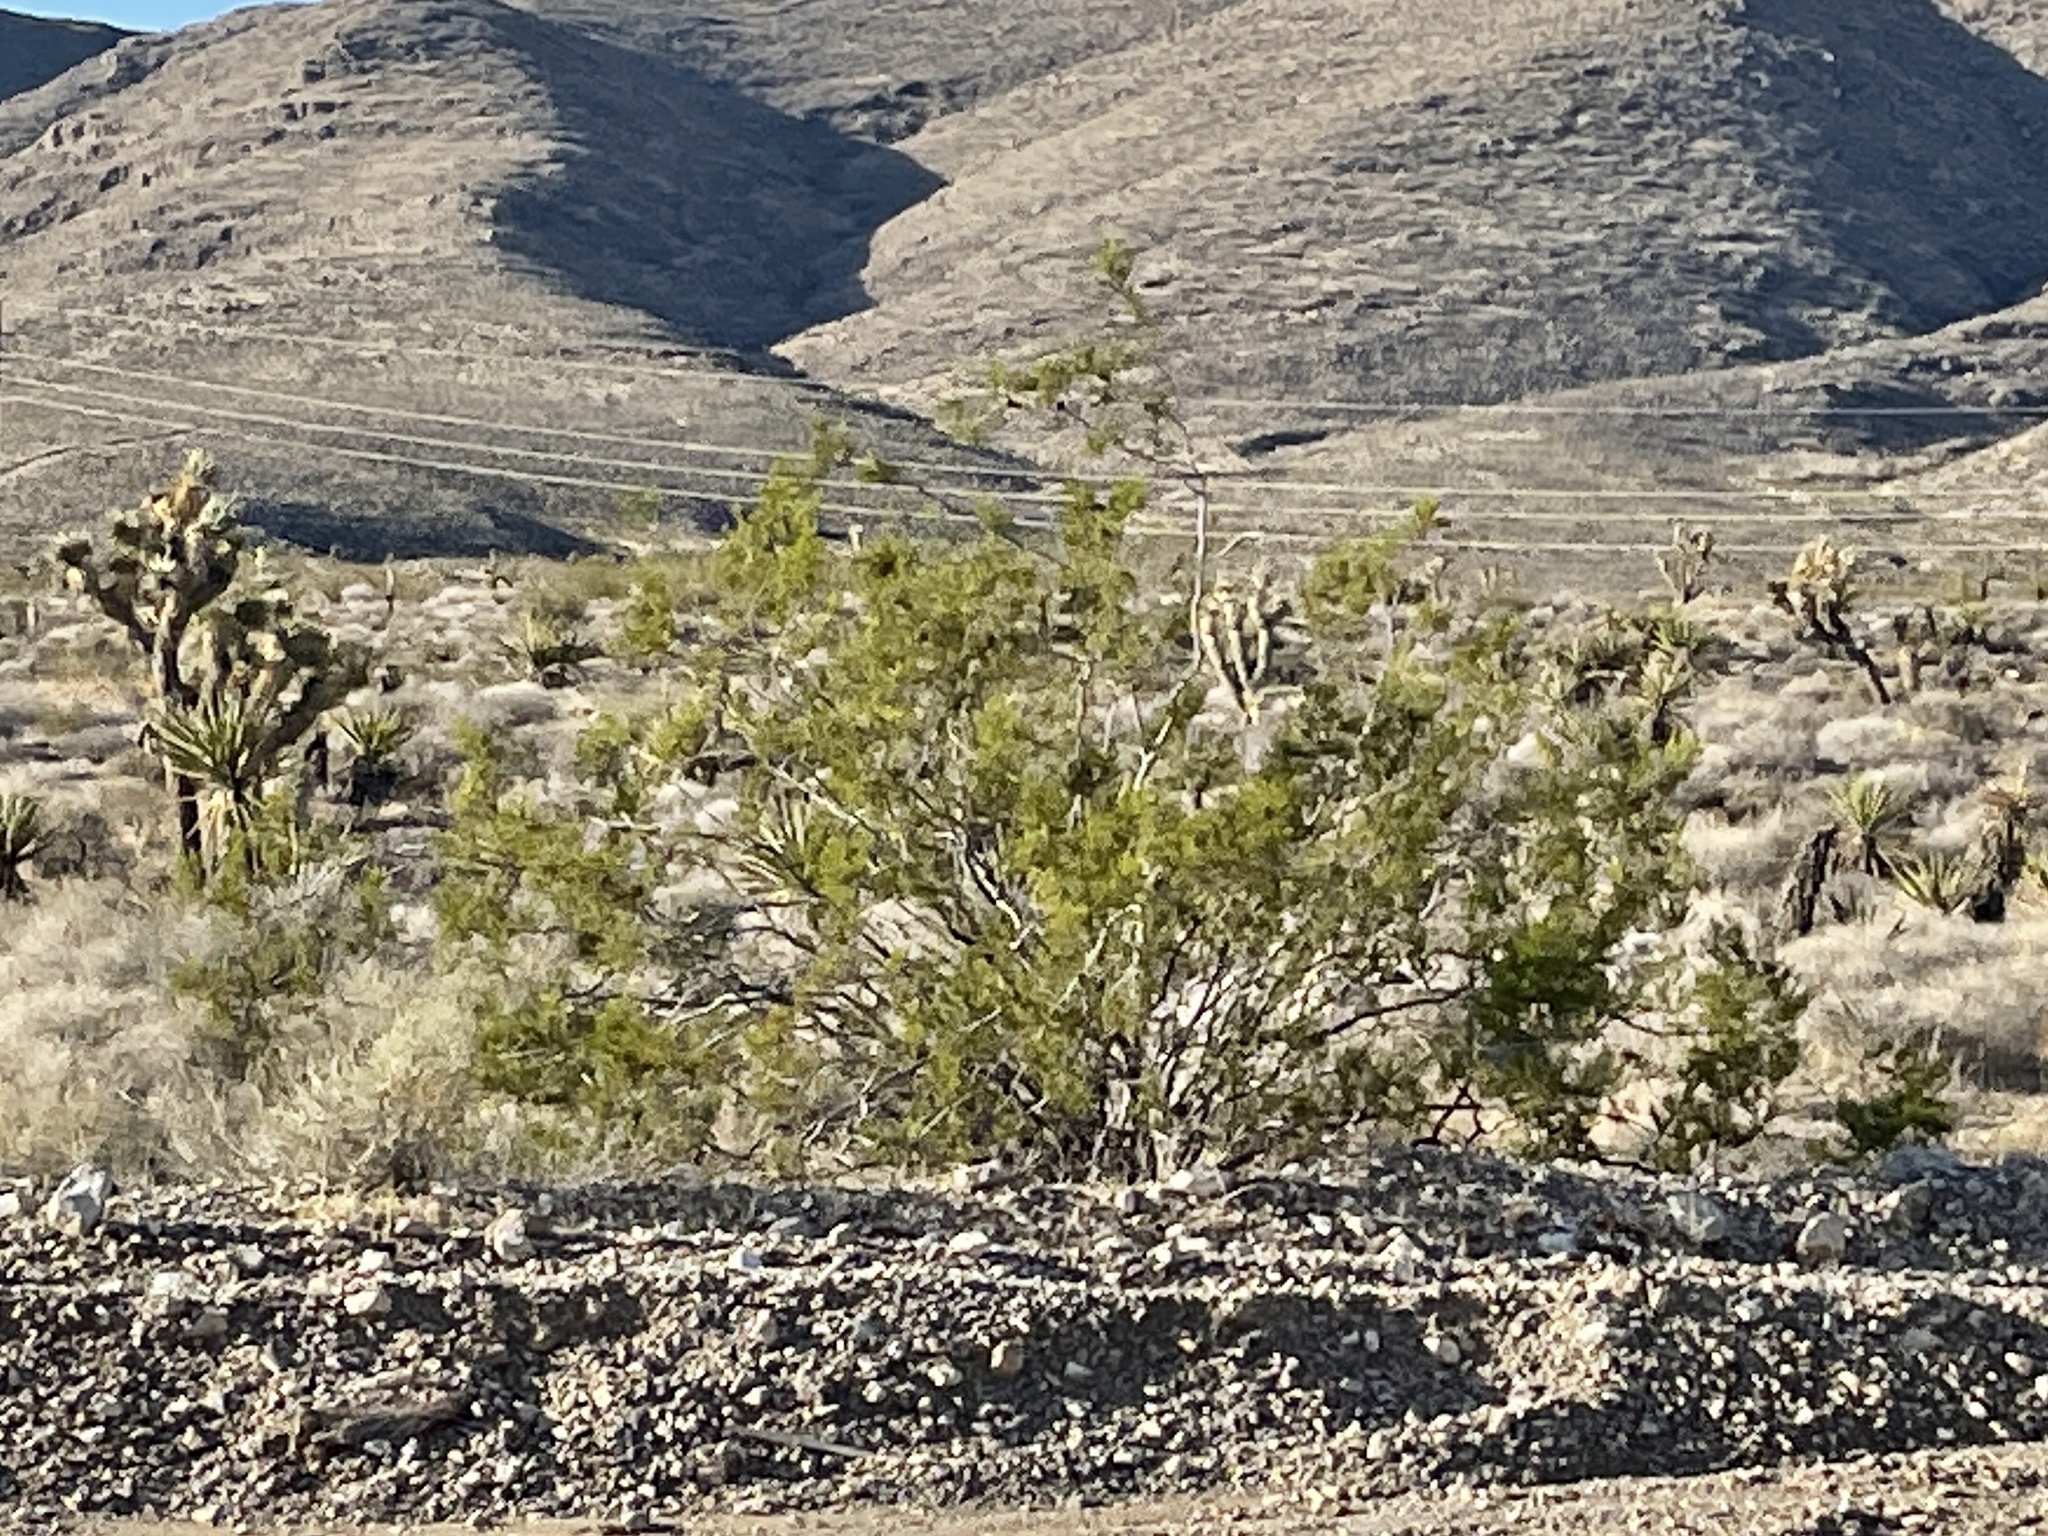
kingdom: Plantae
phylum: Tracheophyta
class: Magnoliopsida
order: Zygophyllales
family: Zygophyllaceae
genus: Larrea
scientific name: Larrea tridentata
